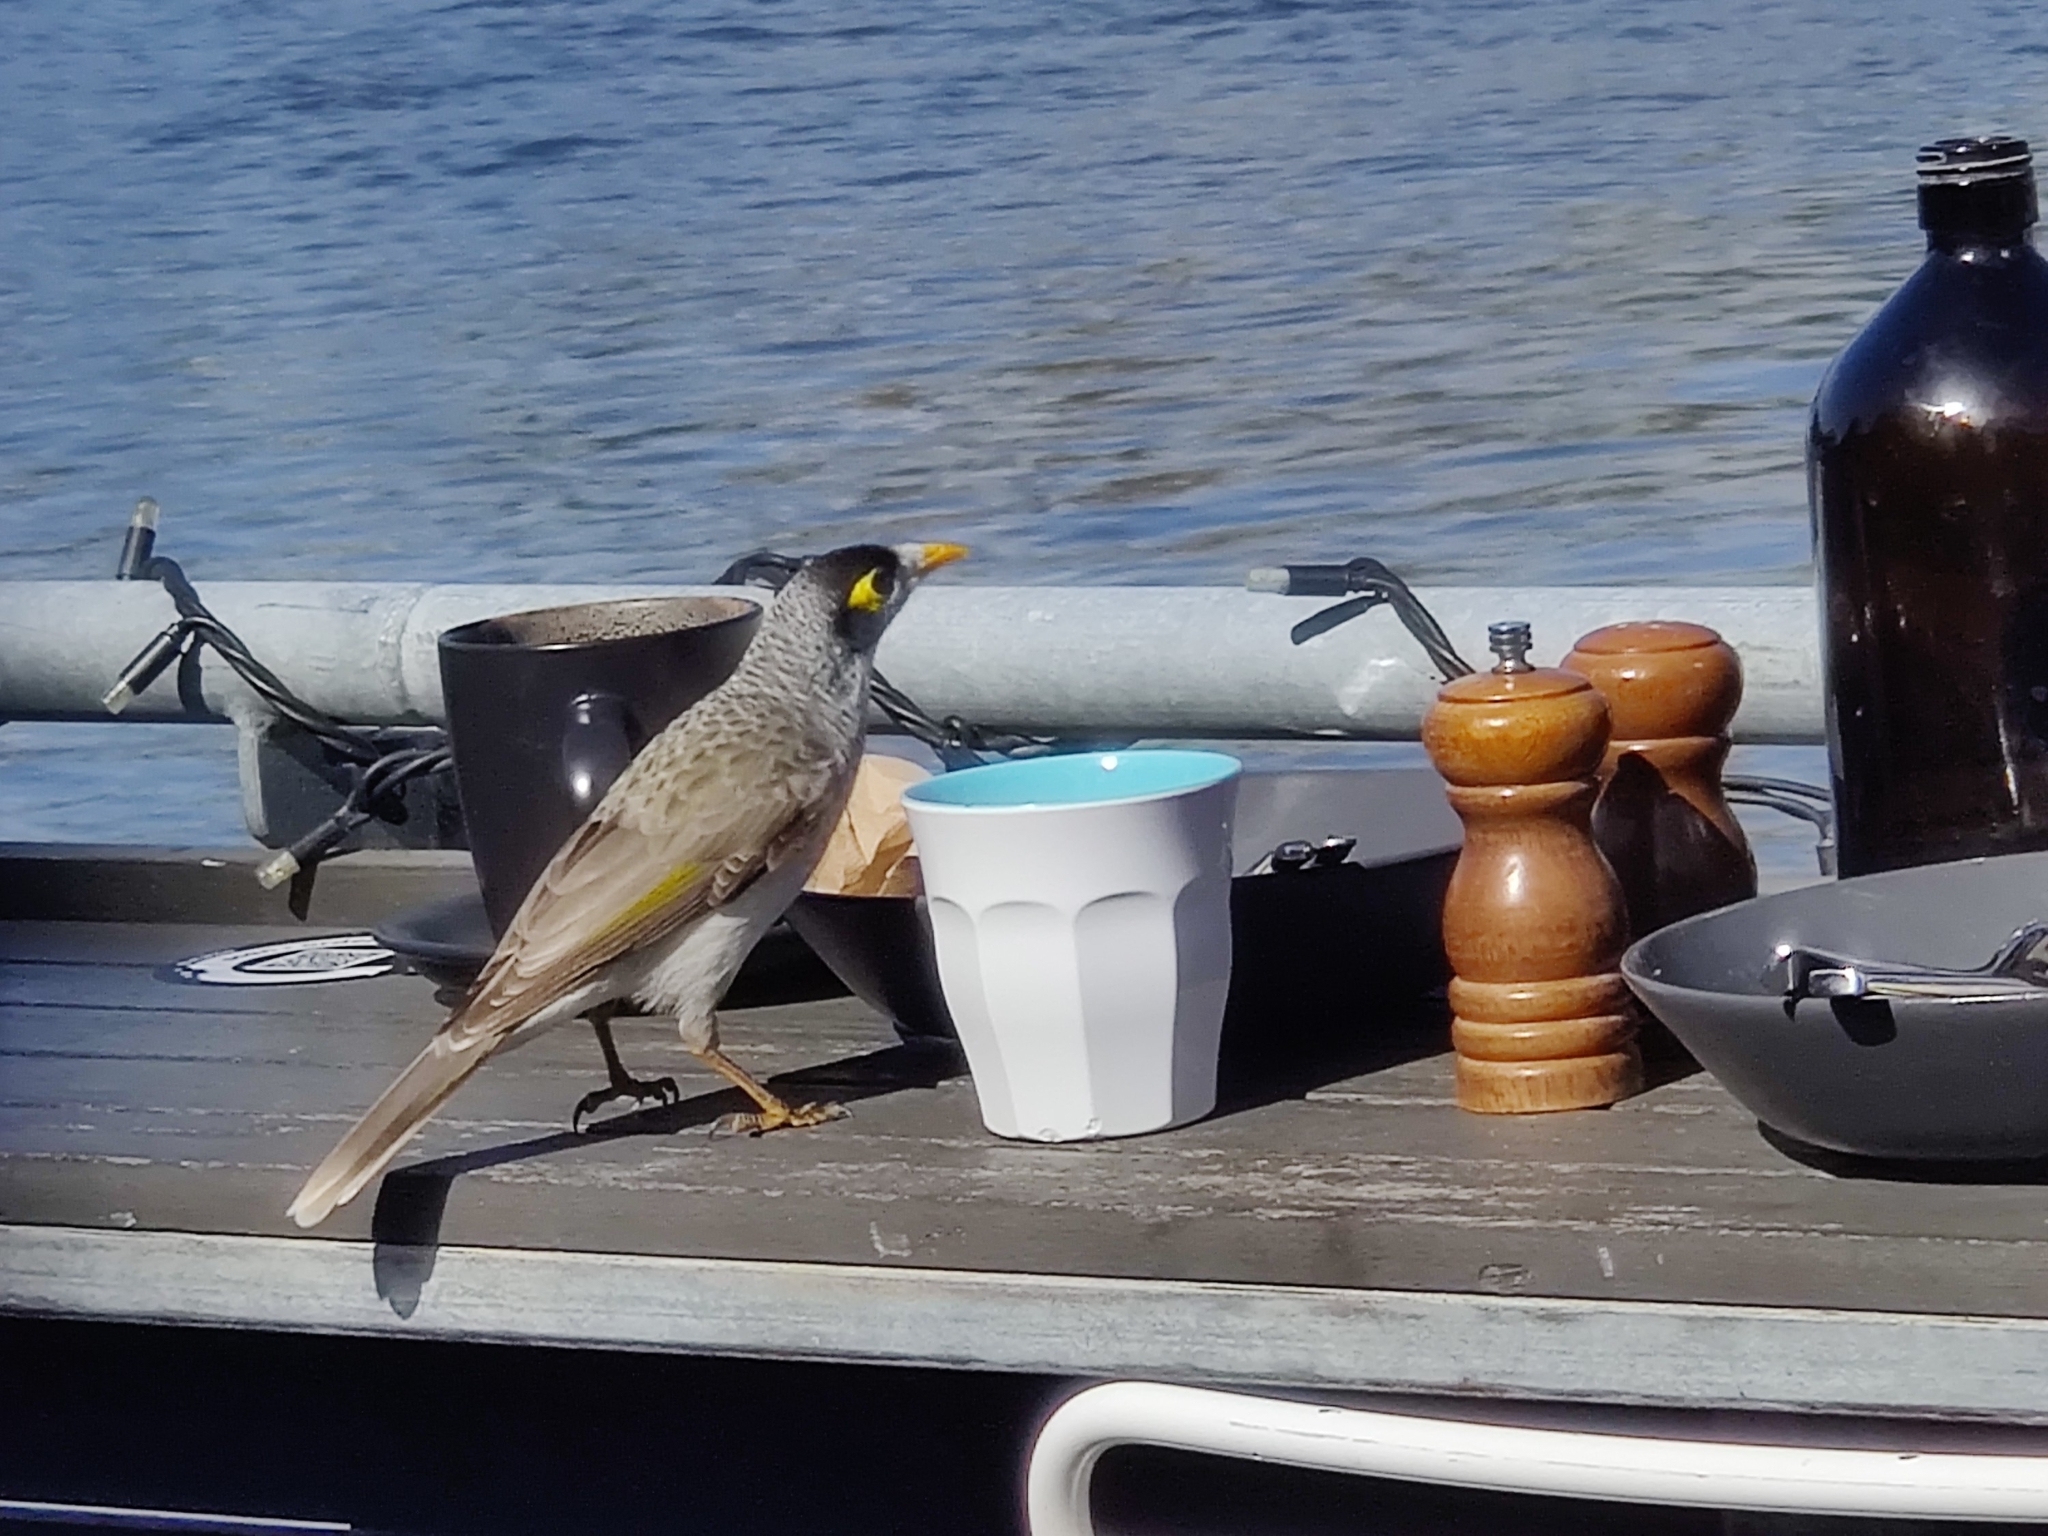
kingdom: Animalia
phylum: Chordata
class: Aves
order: Passeriformes
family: Meliphagidae
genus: Manorina
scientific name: Manorina melanocephala
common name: Noisy miner
